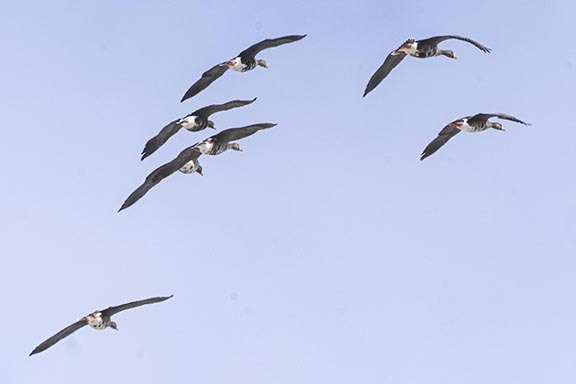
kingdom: Animalia
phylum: Chordata
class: Aves
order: Anseriformes
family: Anatidae
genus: Anser
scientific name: Anser albifrons
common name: Greater white-fronted goose
